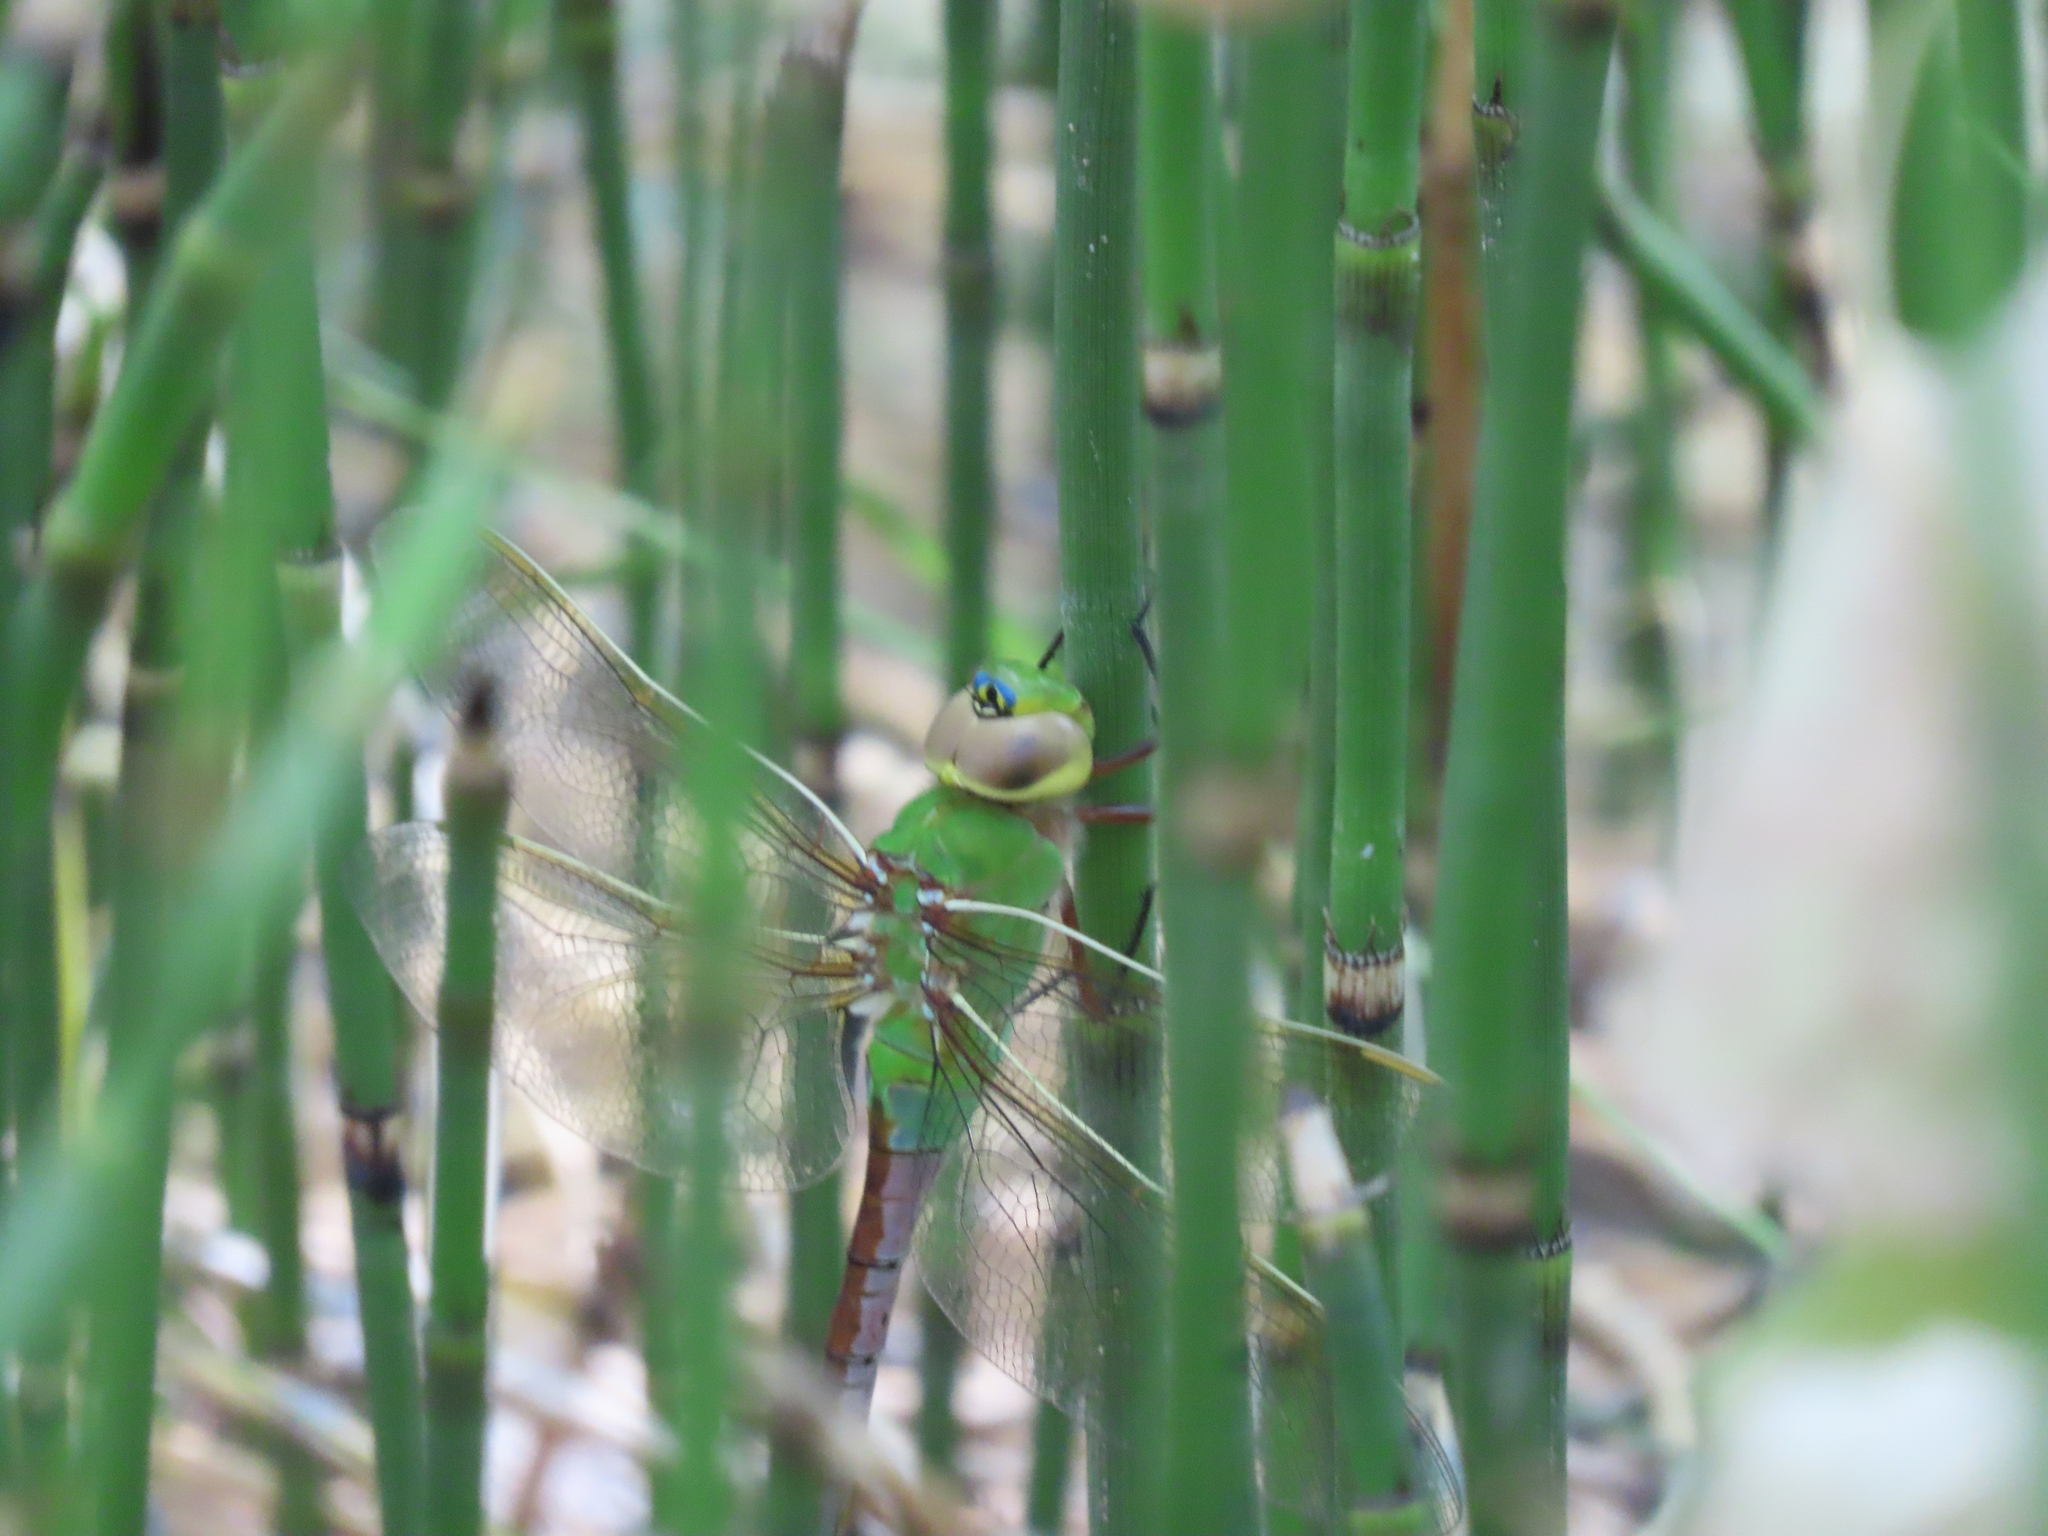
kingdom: Animalia
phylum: Arthropoda
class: Insecta
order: Odonata
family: Aeshnidae
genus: Anax
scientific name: Anax junius
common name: Common green darner
